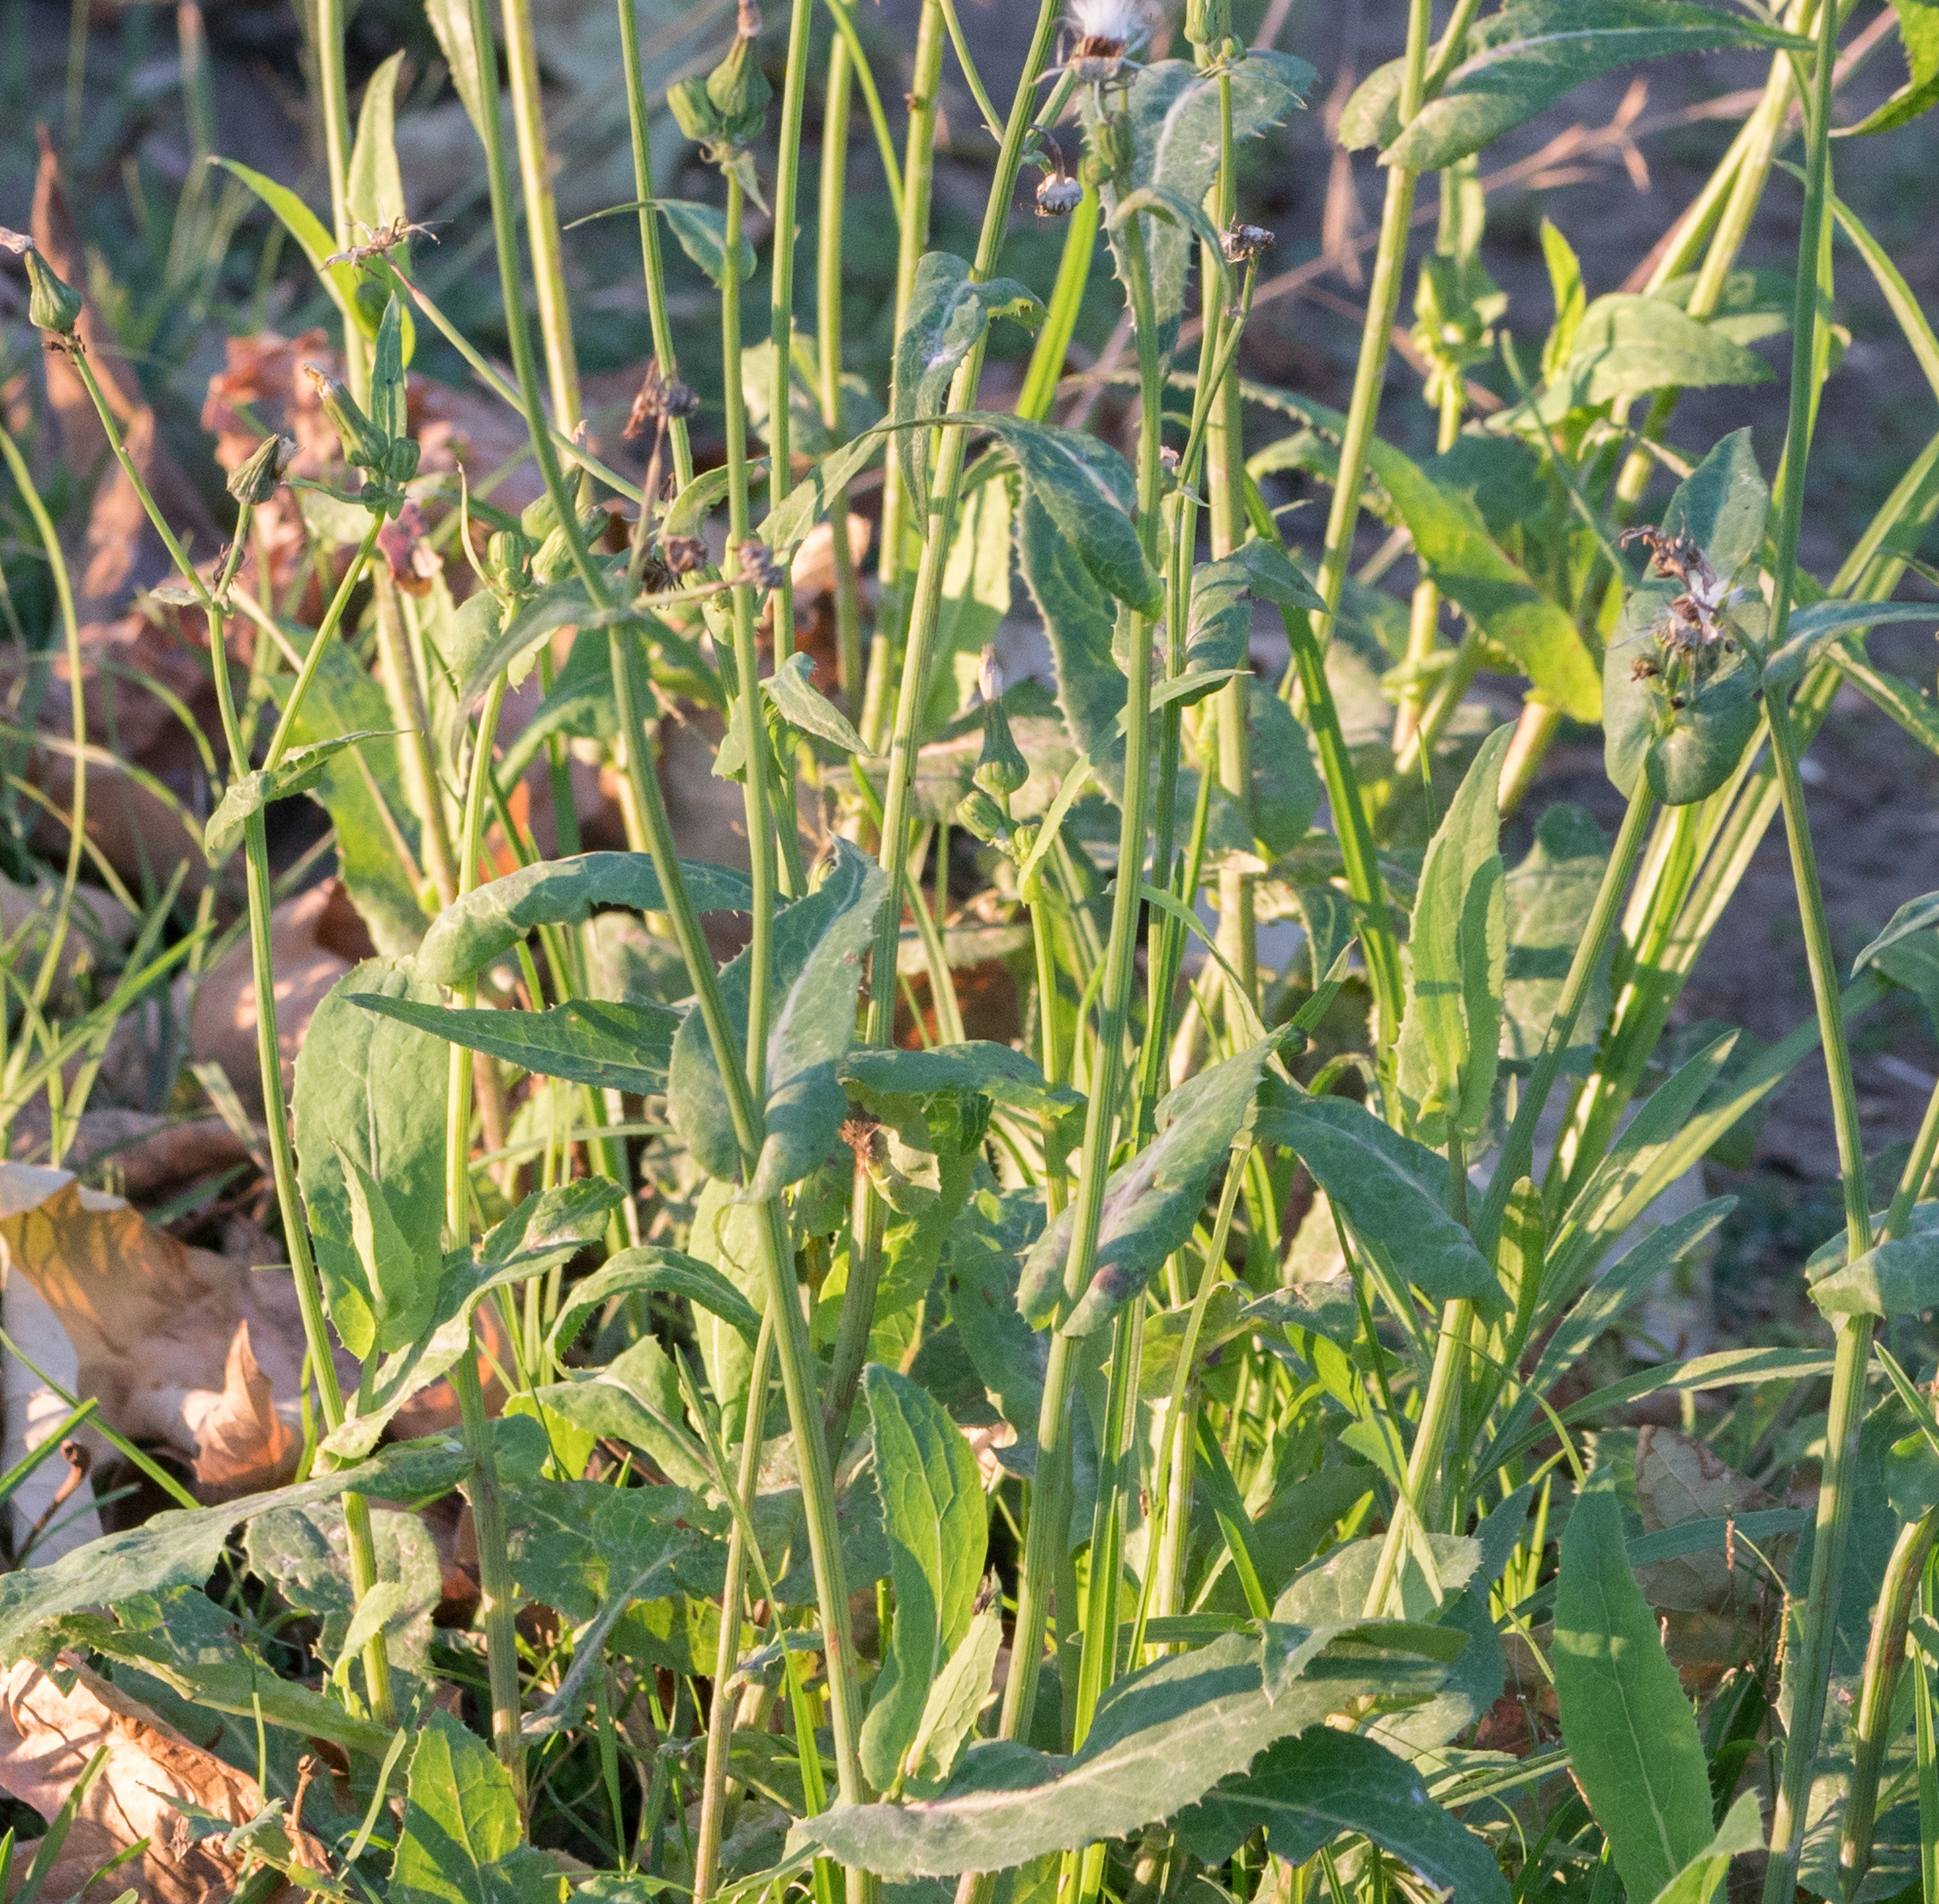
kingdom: Plantae
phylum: Tracheophyta
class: Magnoliopsida
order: Asterales
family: Asteraceae
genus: Sonchus
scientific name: Sonchus oleraceus
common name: Common sowthistle
